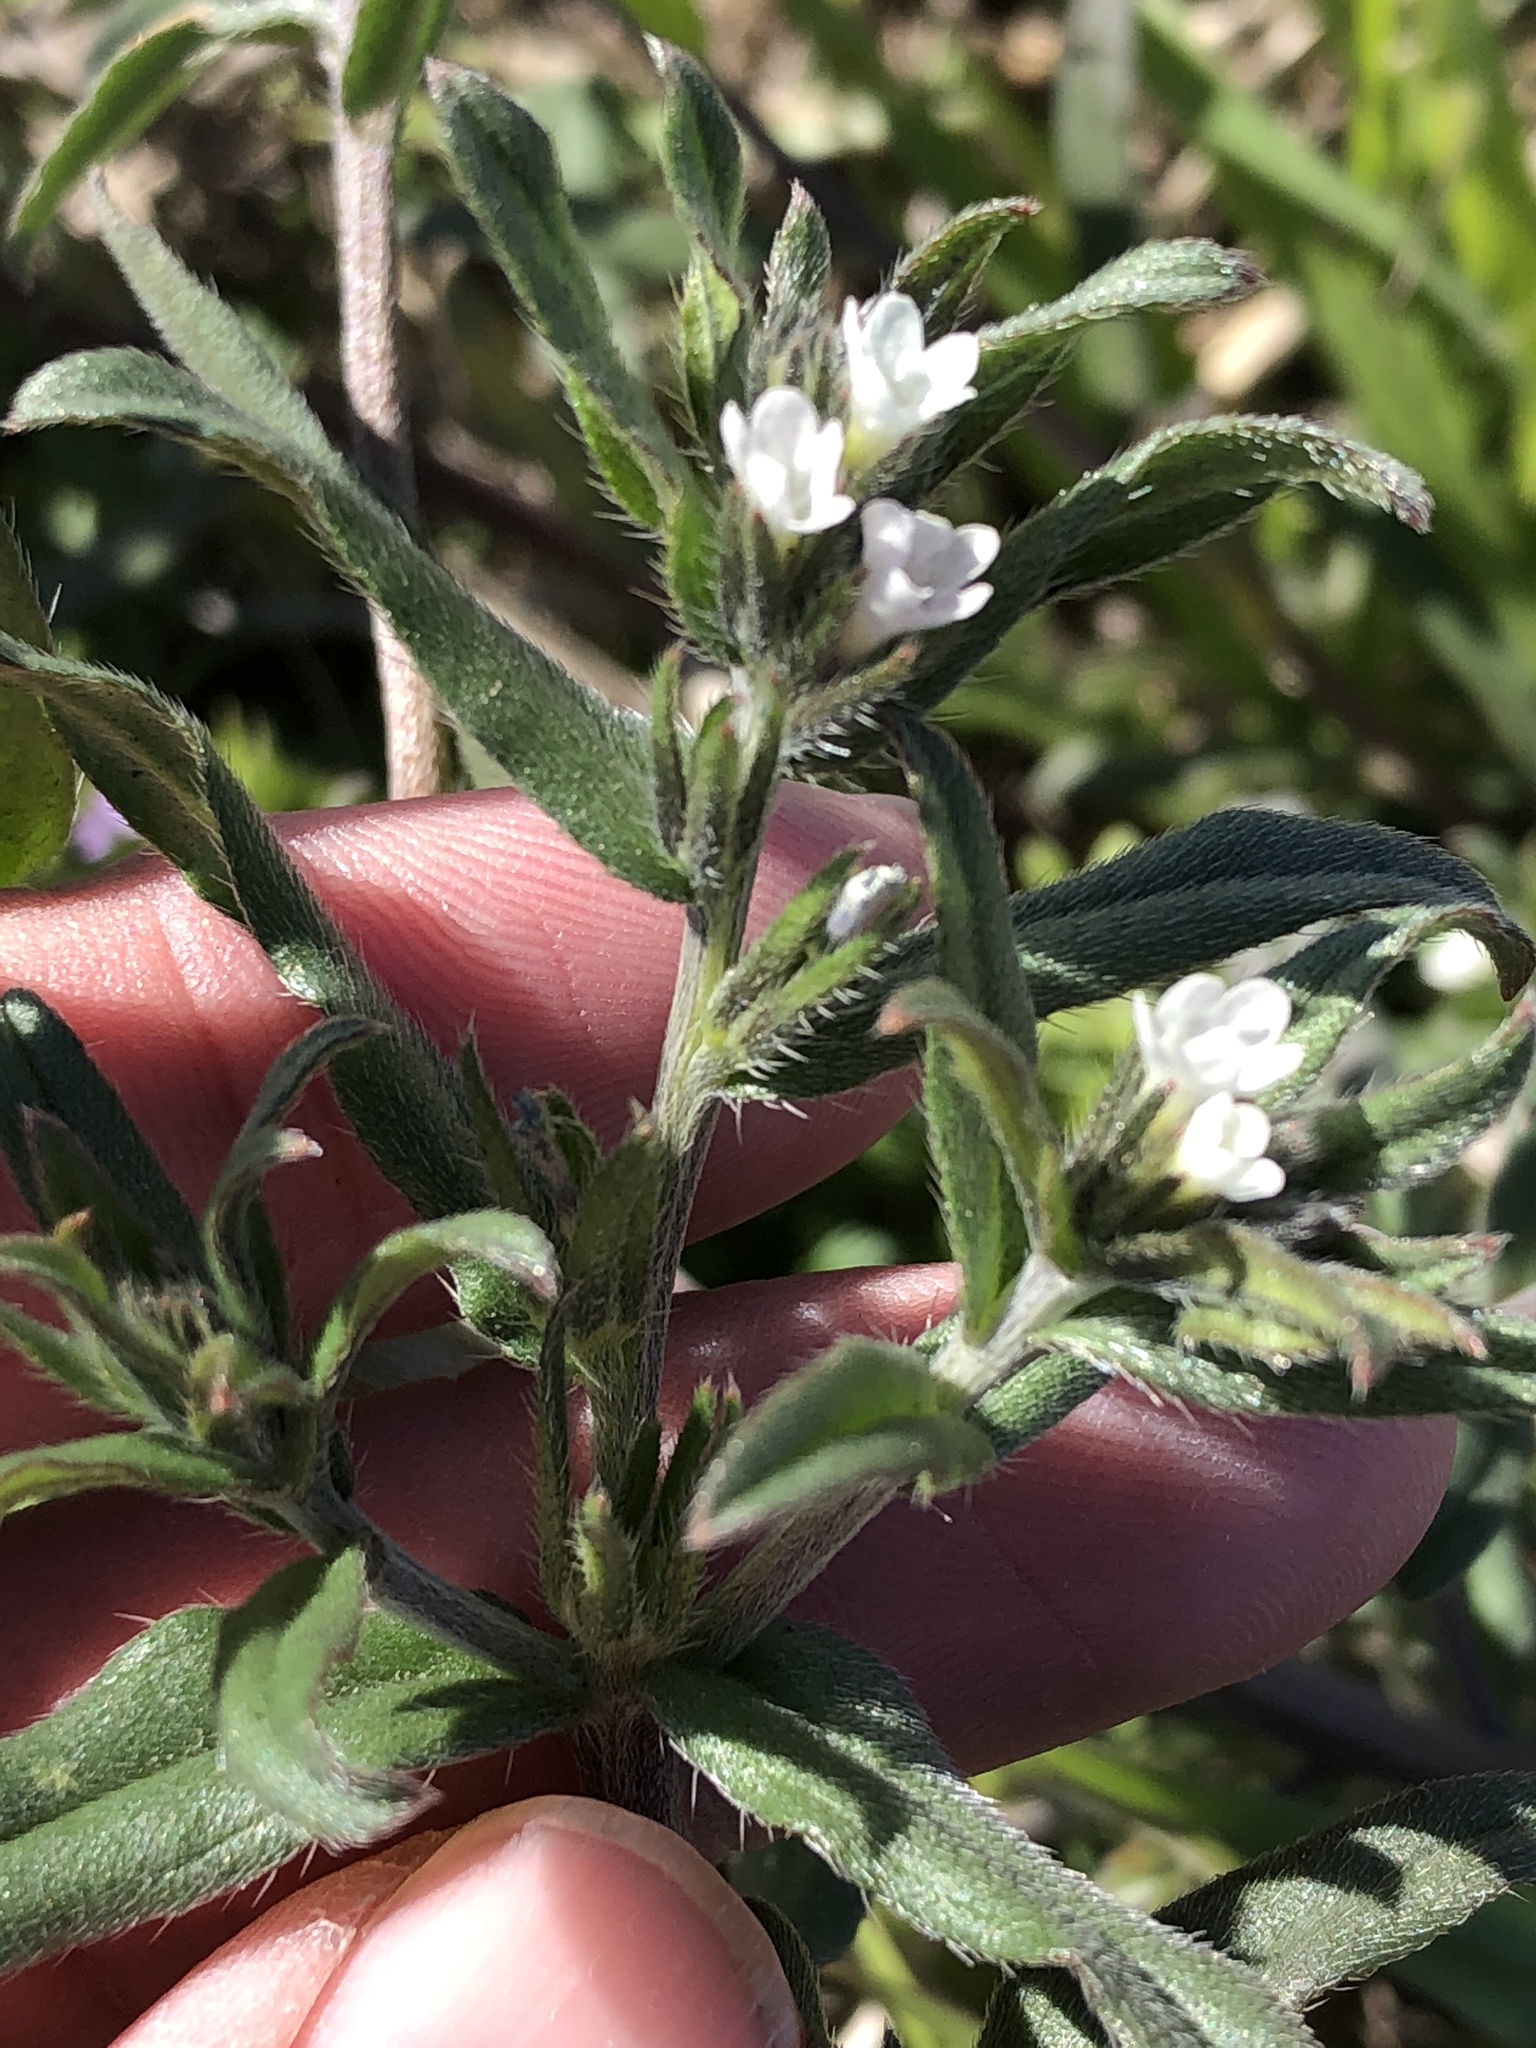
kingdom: Plantae
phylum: Tracheophyta
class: Magnoliopsida
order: Boraginales
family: Boraginaceae
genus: Buglossoides
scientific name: Buglossoides arvensis
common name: Corn gromwell
